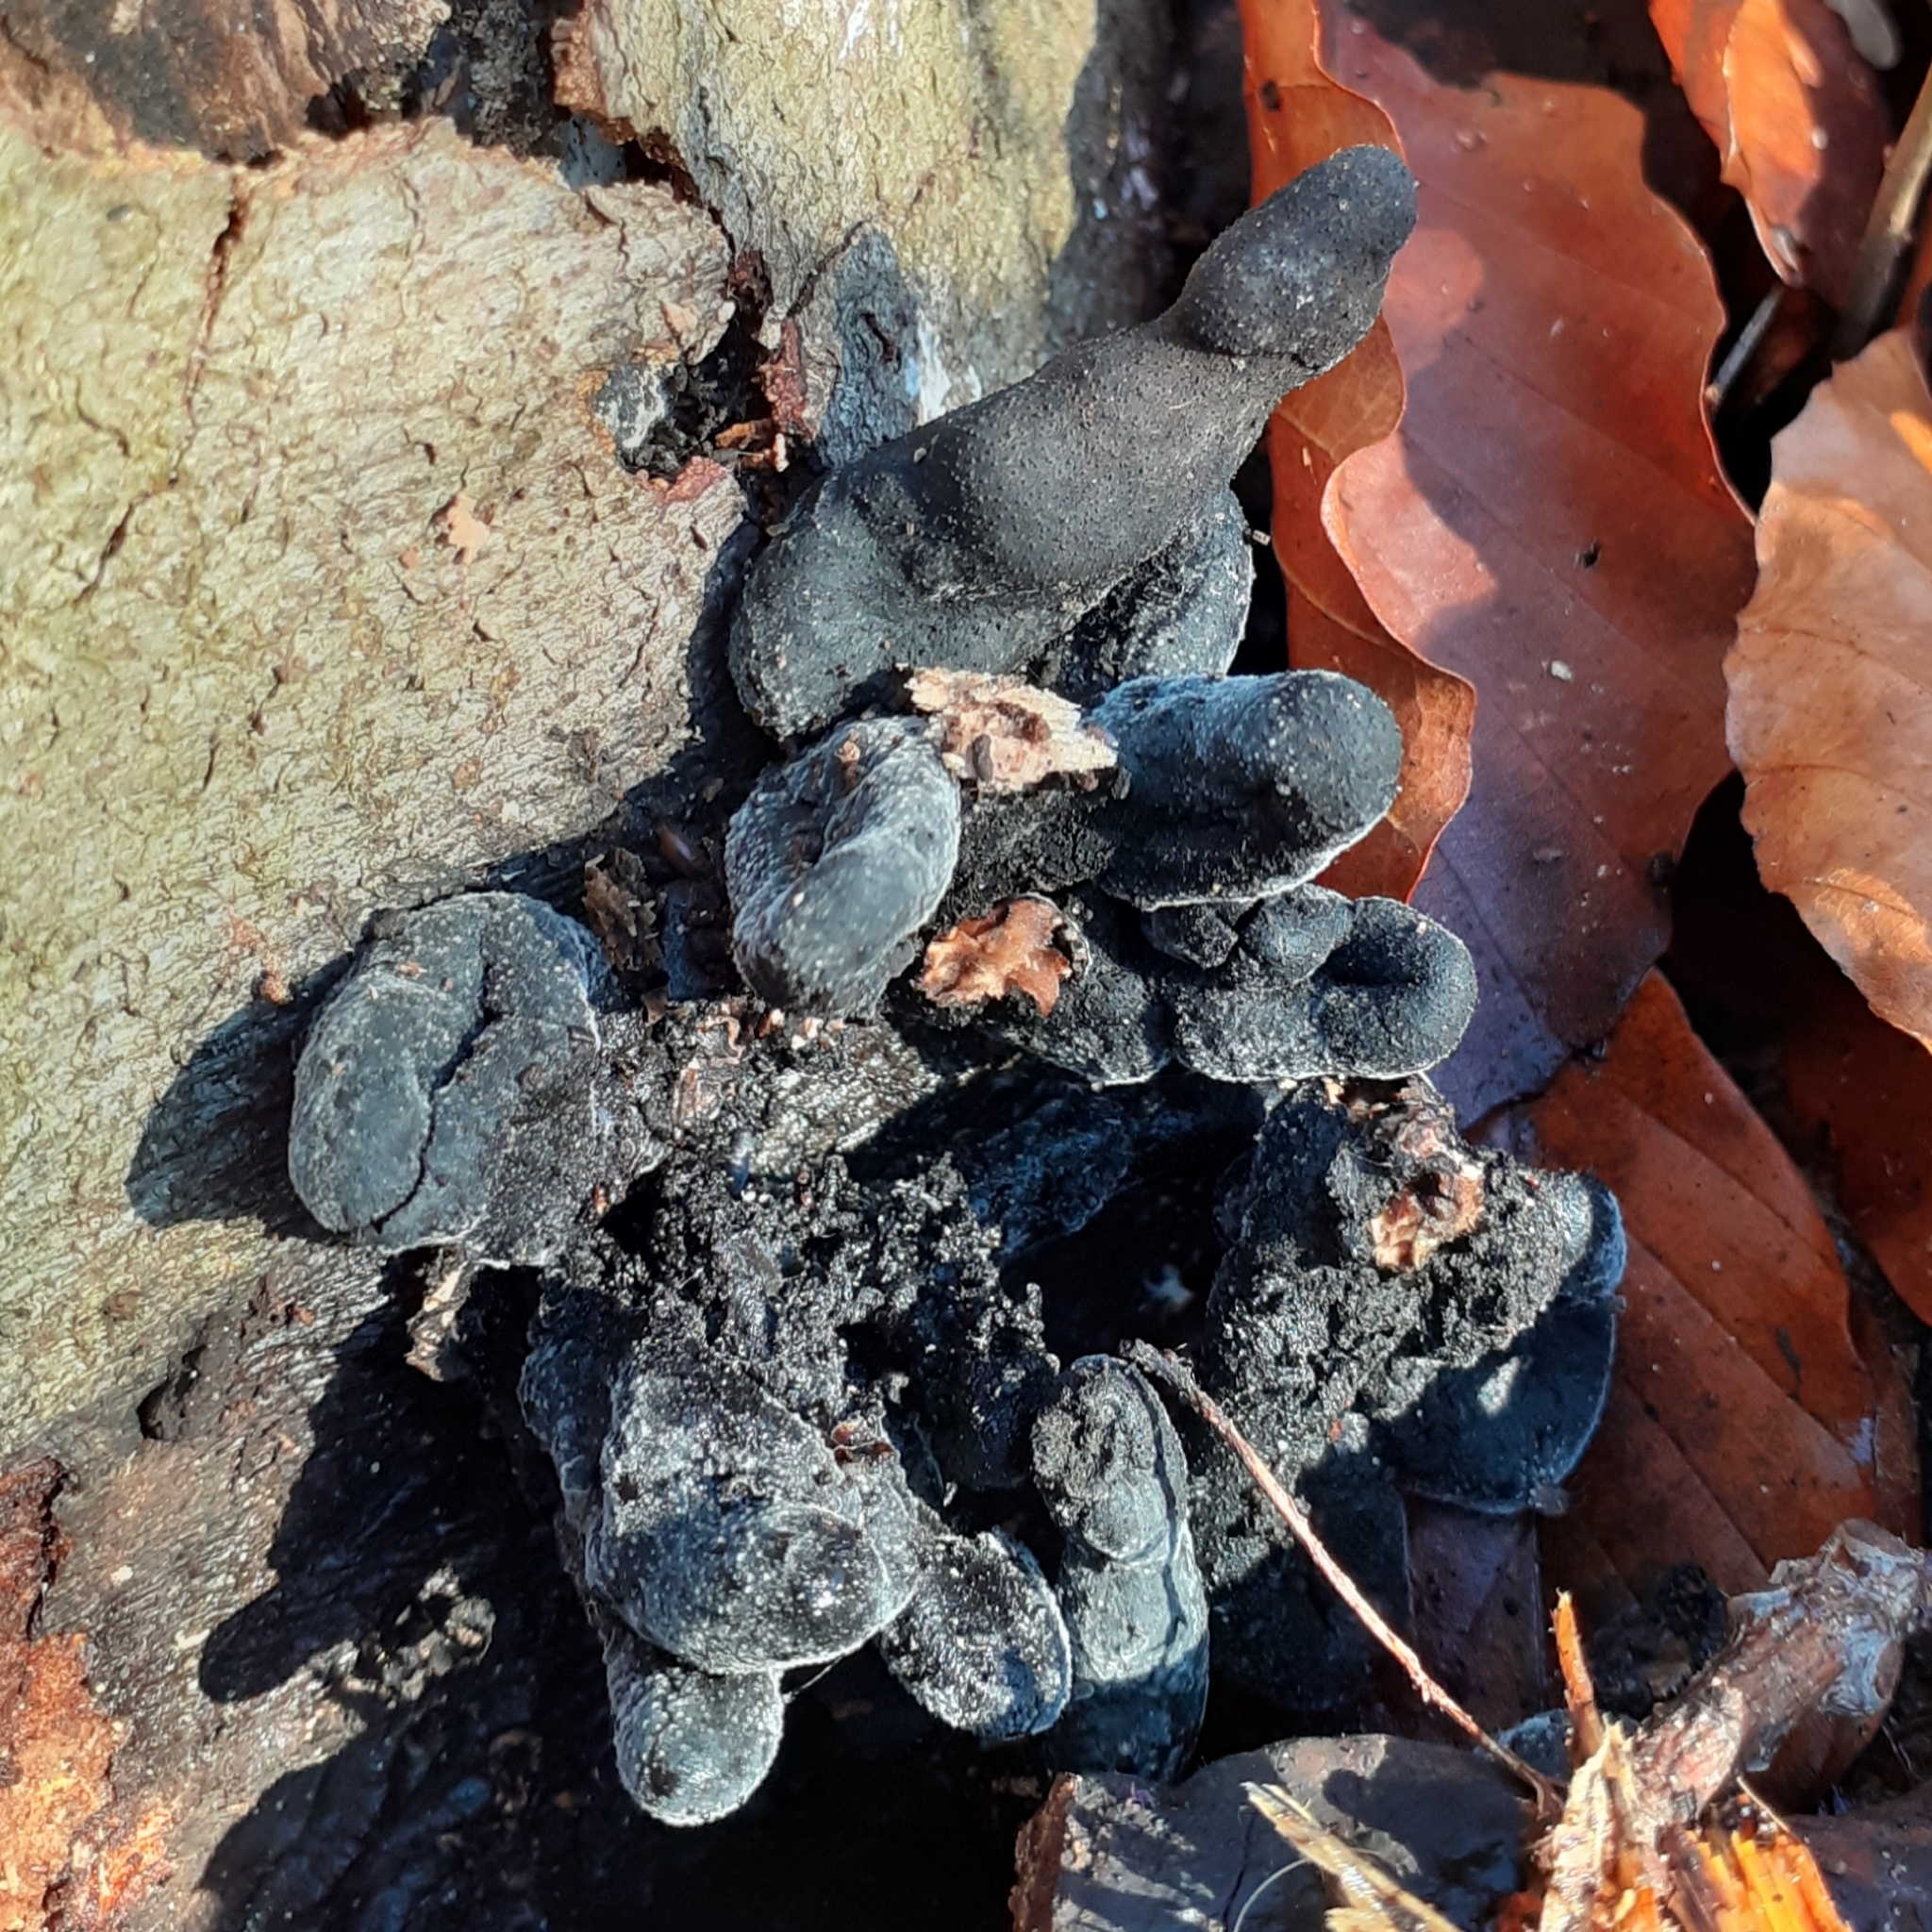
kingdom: Fungi
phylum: Ascomycota
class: Sordariomycetes
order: Xylariales
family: Xylariaceae
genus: Xylaria
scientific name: Xylaria polymorpha
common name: Dead man's fingers
